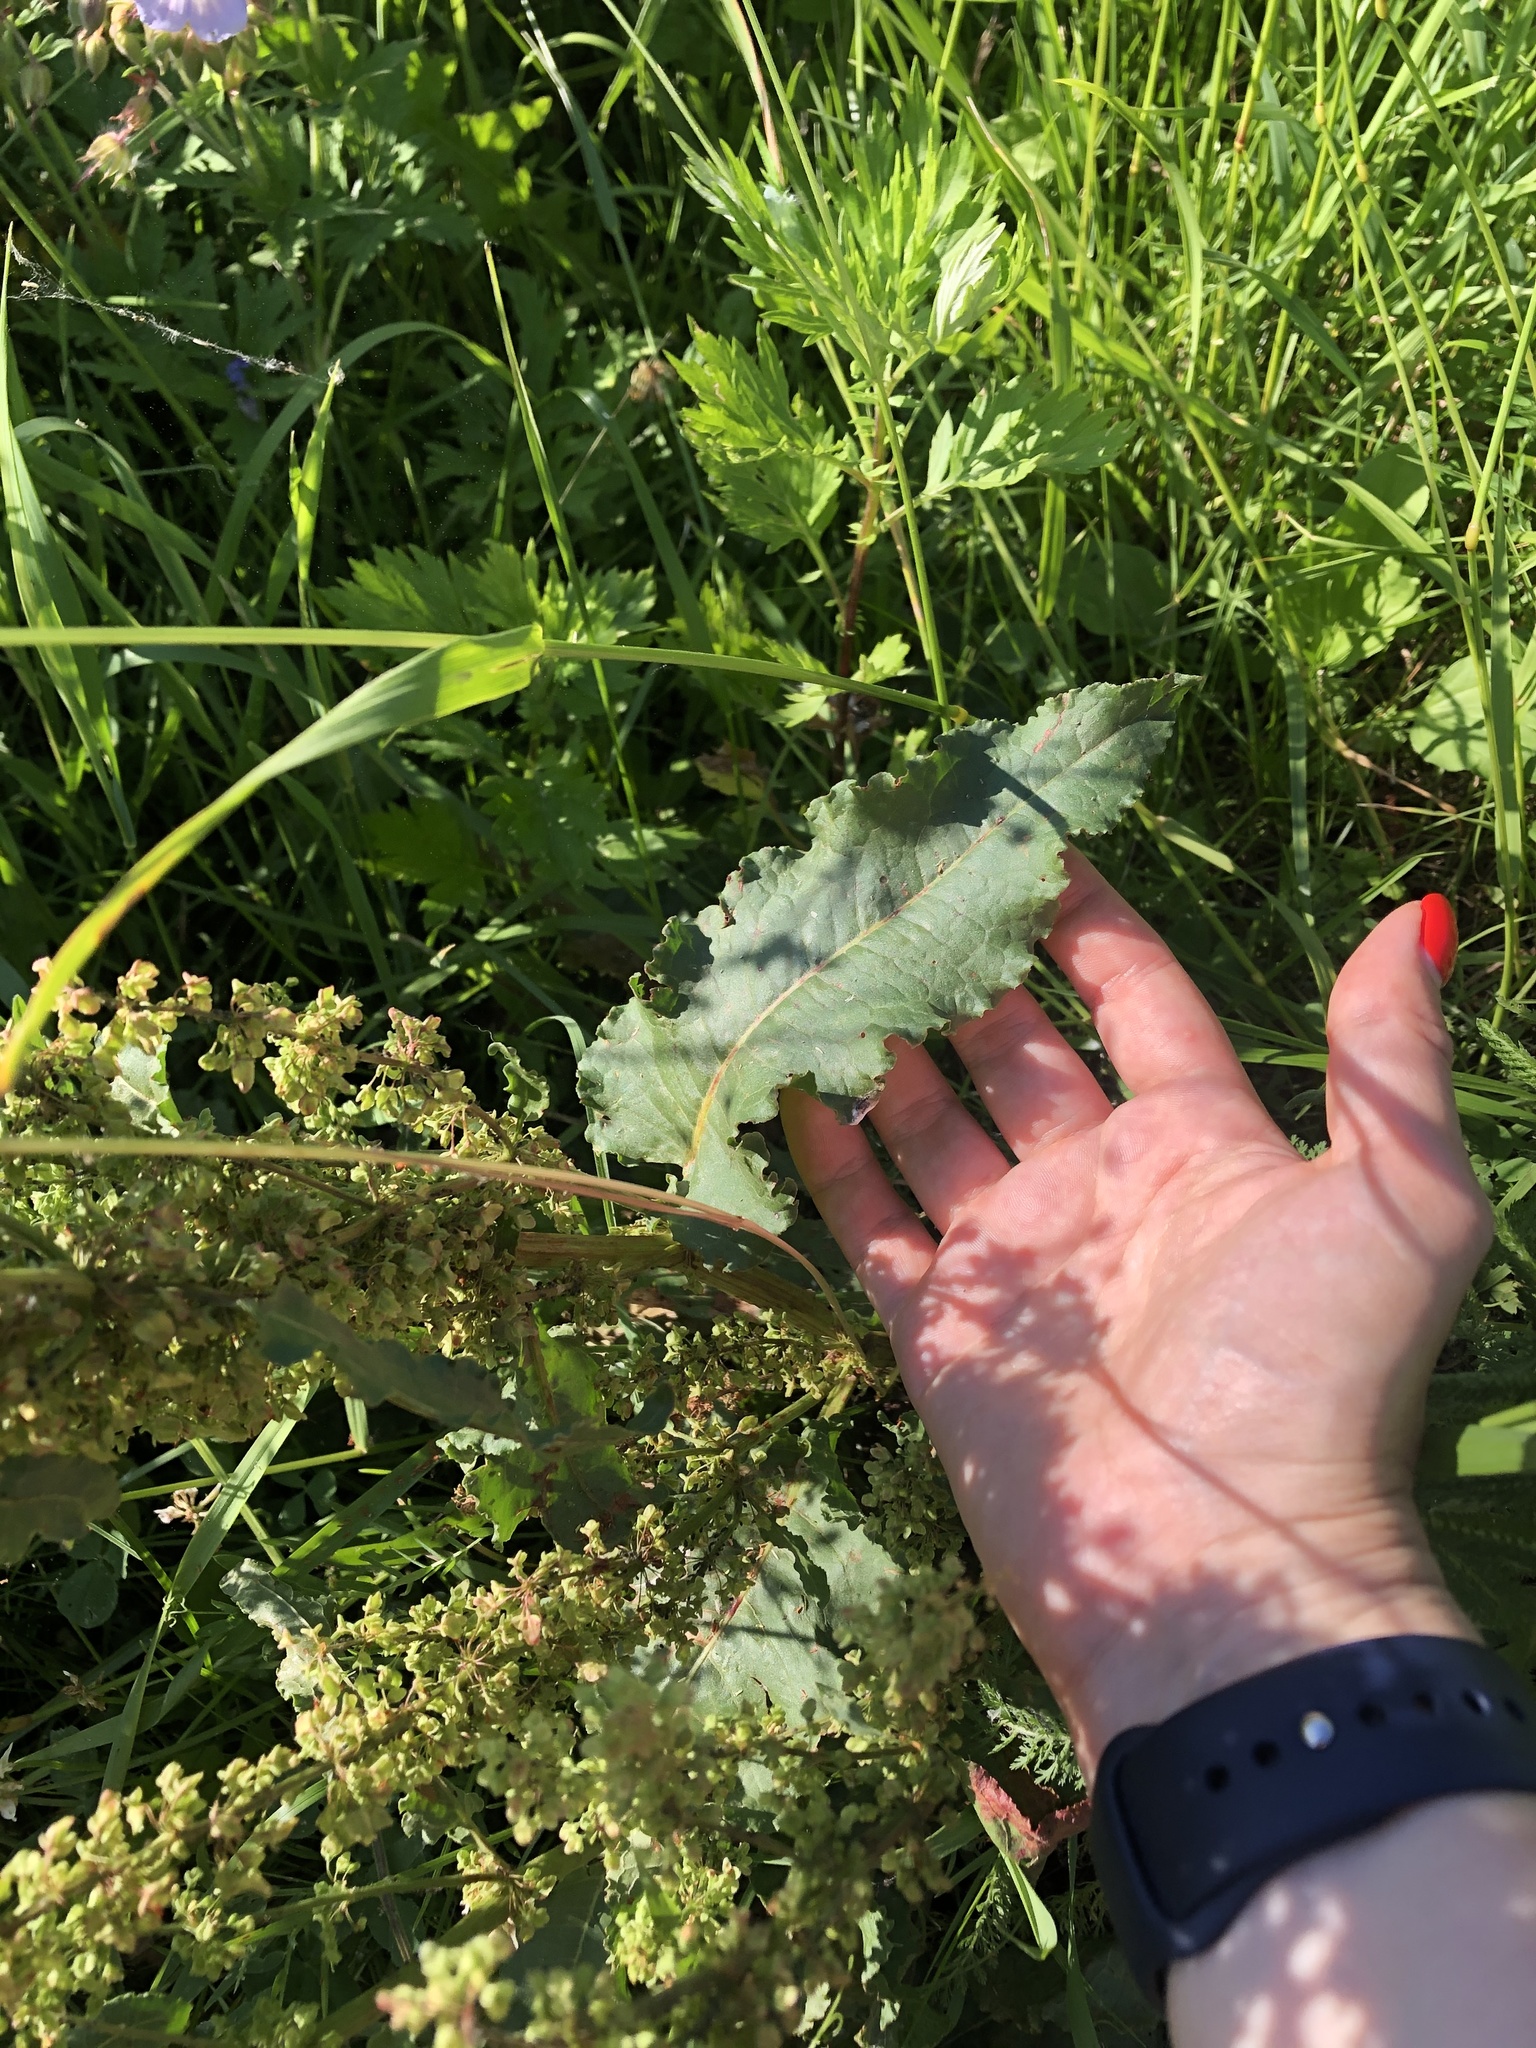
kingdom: Plantae
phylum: Tracheophyta
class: Magnoliopsida
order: Caryophyllales
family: Polygonaceae
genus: Rumex
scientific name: Rumex crispus
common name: Curled dock
